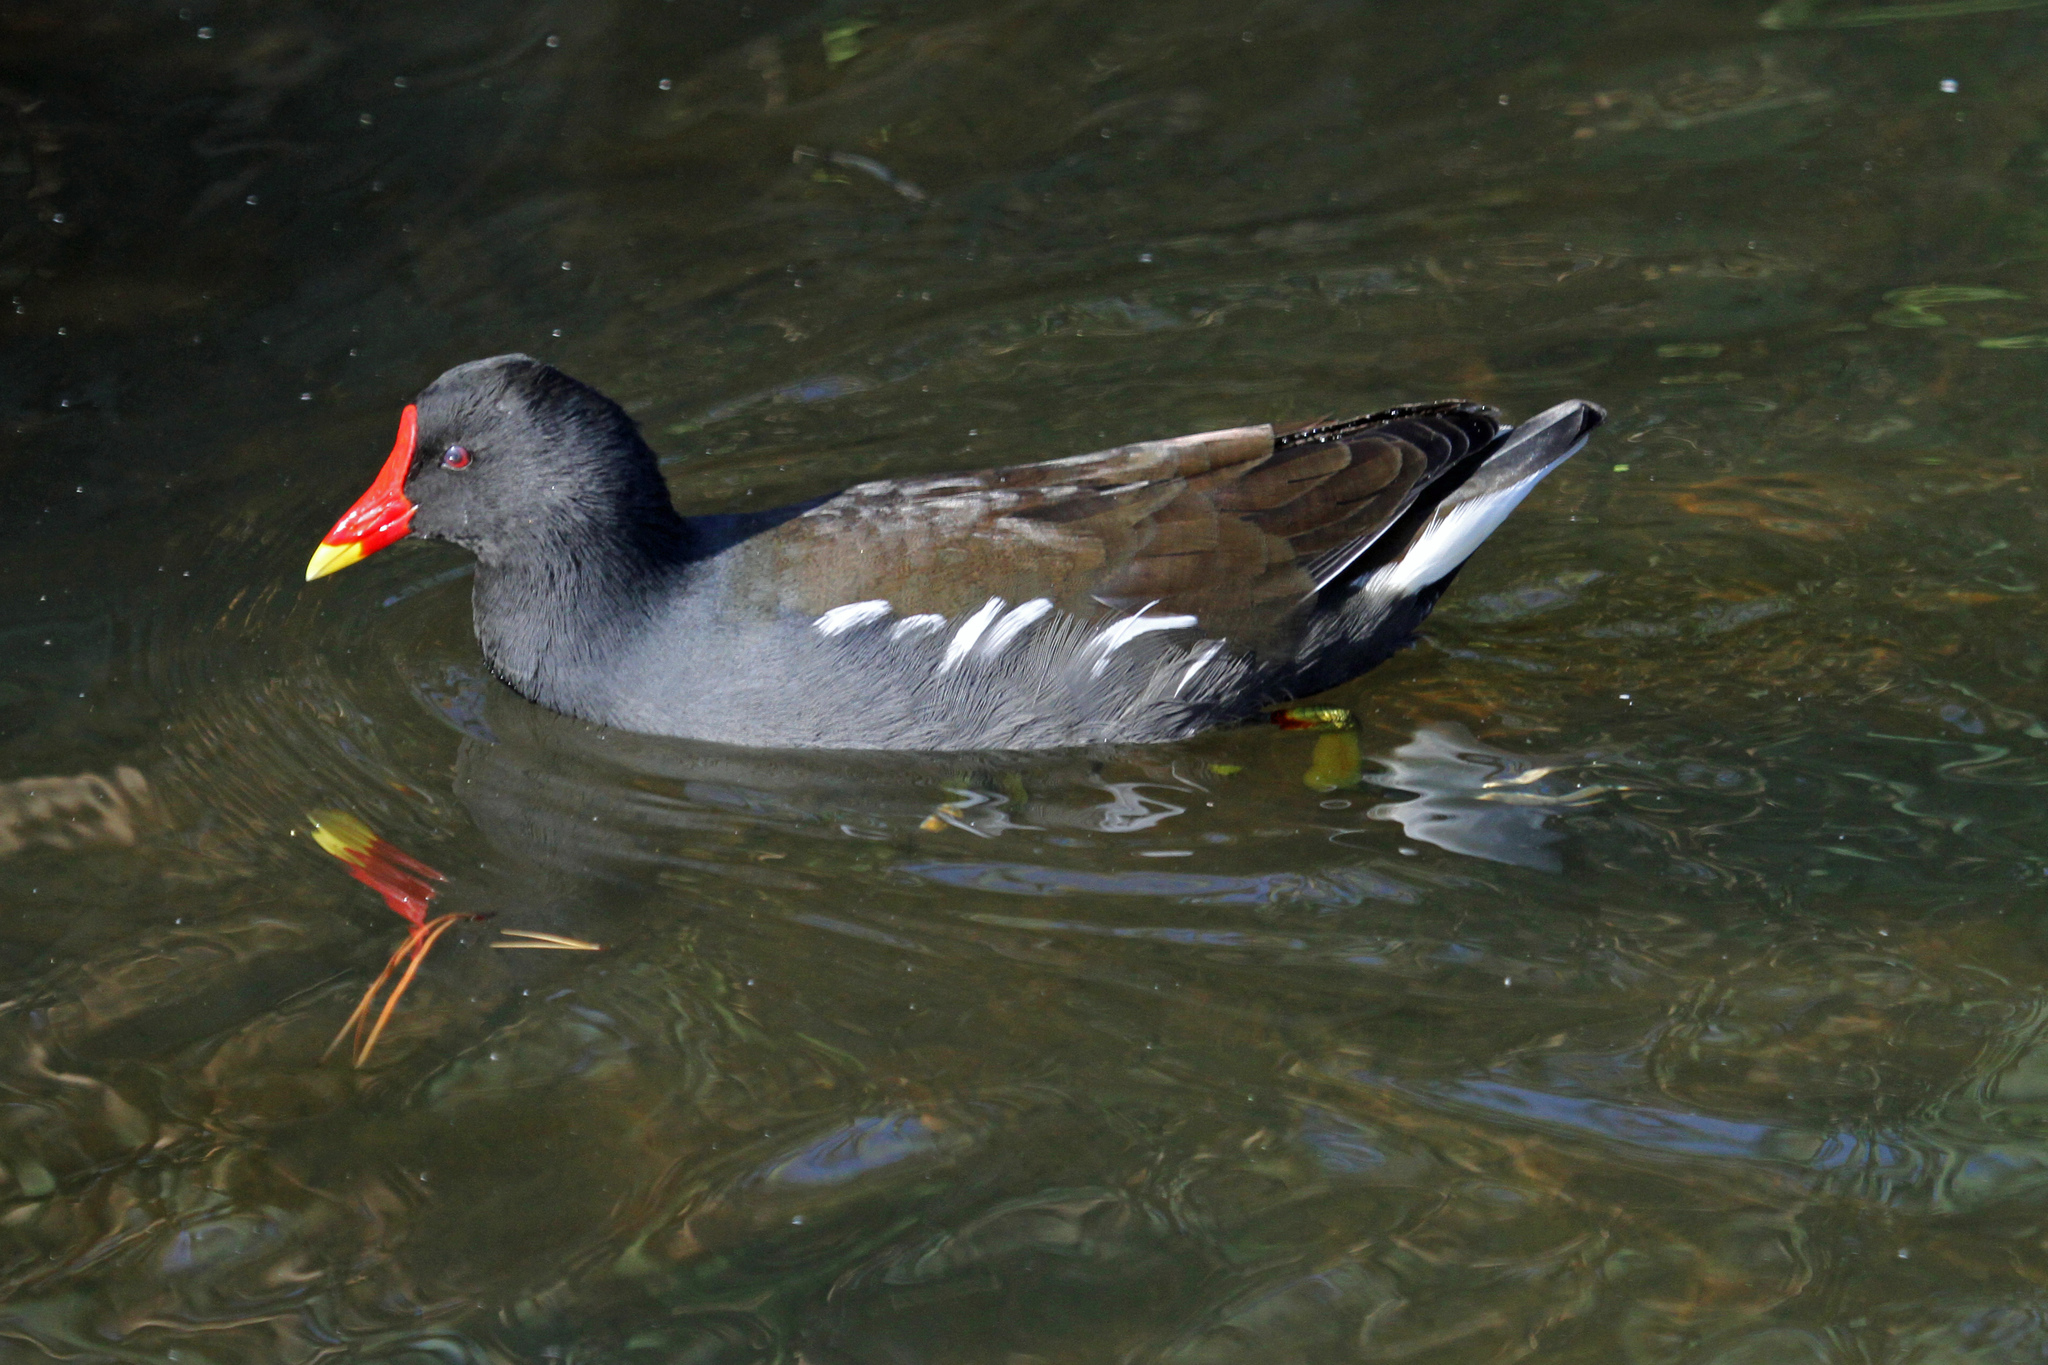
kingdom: Animalia
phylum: Chordata
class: Aves
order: Gruiformes
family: Rallidae
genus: Gallinula
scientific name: Gallinula chloropus
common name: Common moorhen
